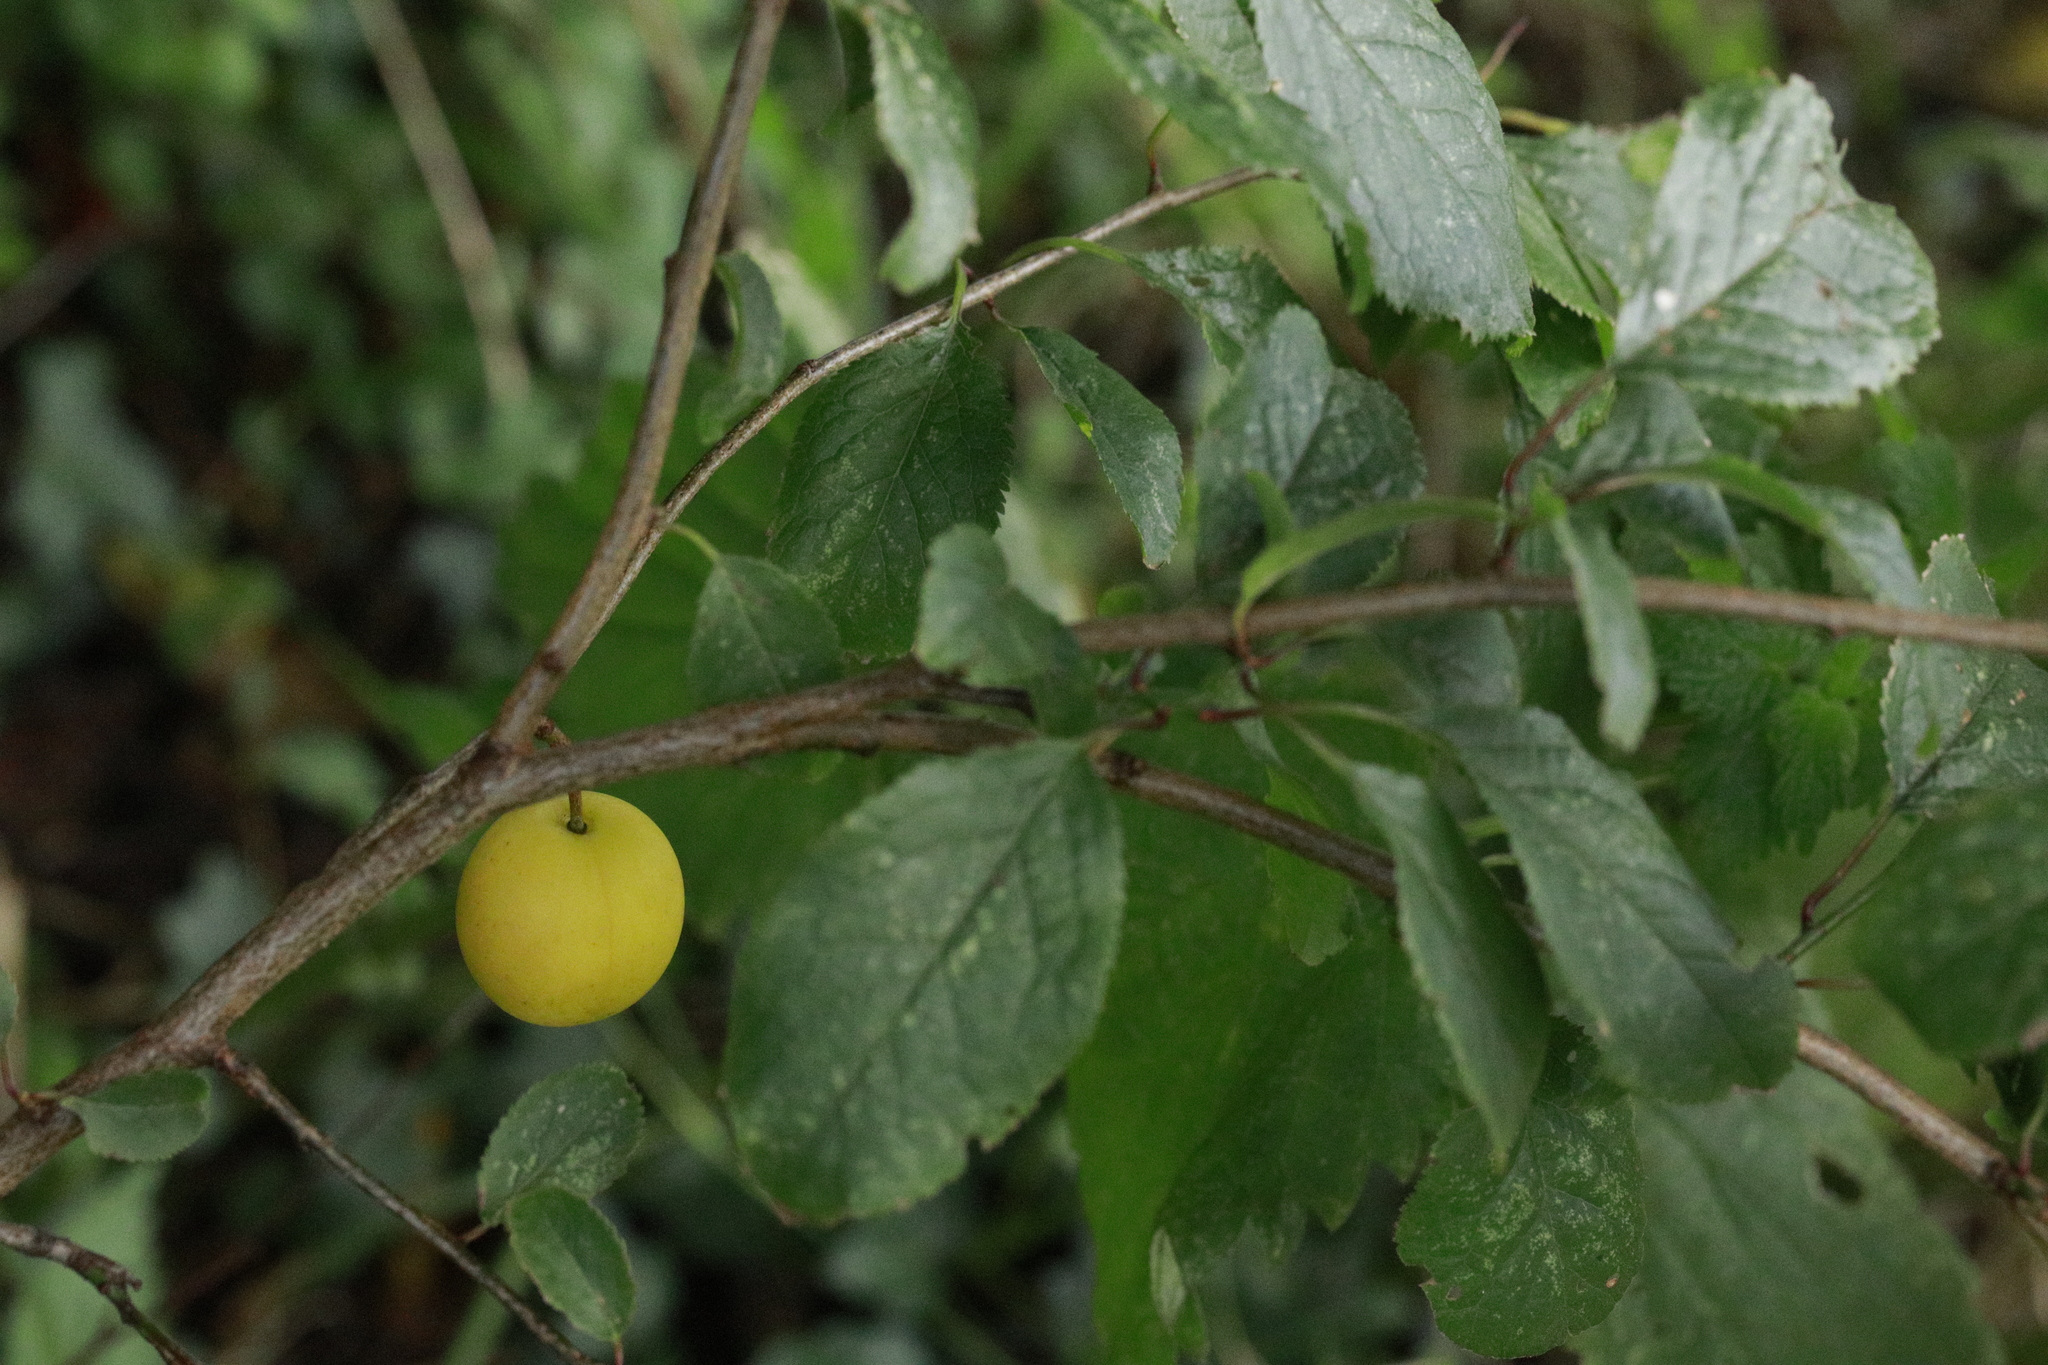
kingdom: Plantae
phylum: Tracheophyta
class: Magnoliopsida
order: Rosales
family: Rosaceae
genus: Prunus
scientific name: Prunus cerasifera
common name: Cherry plum
